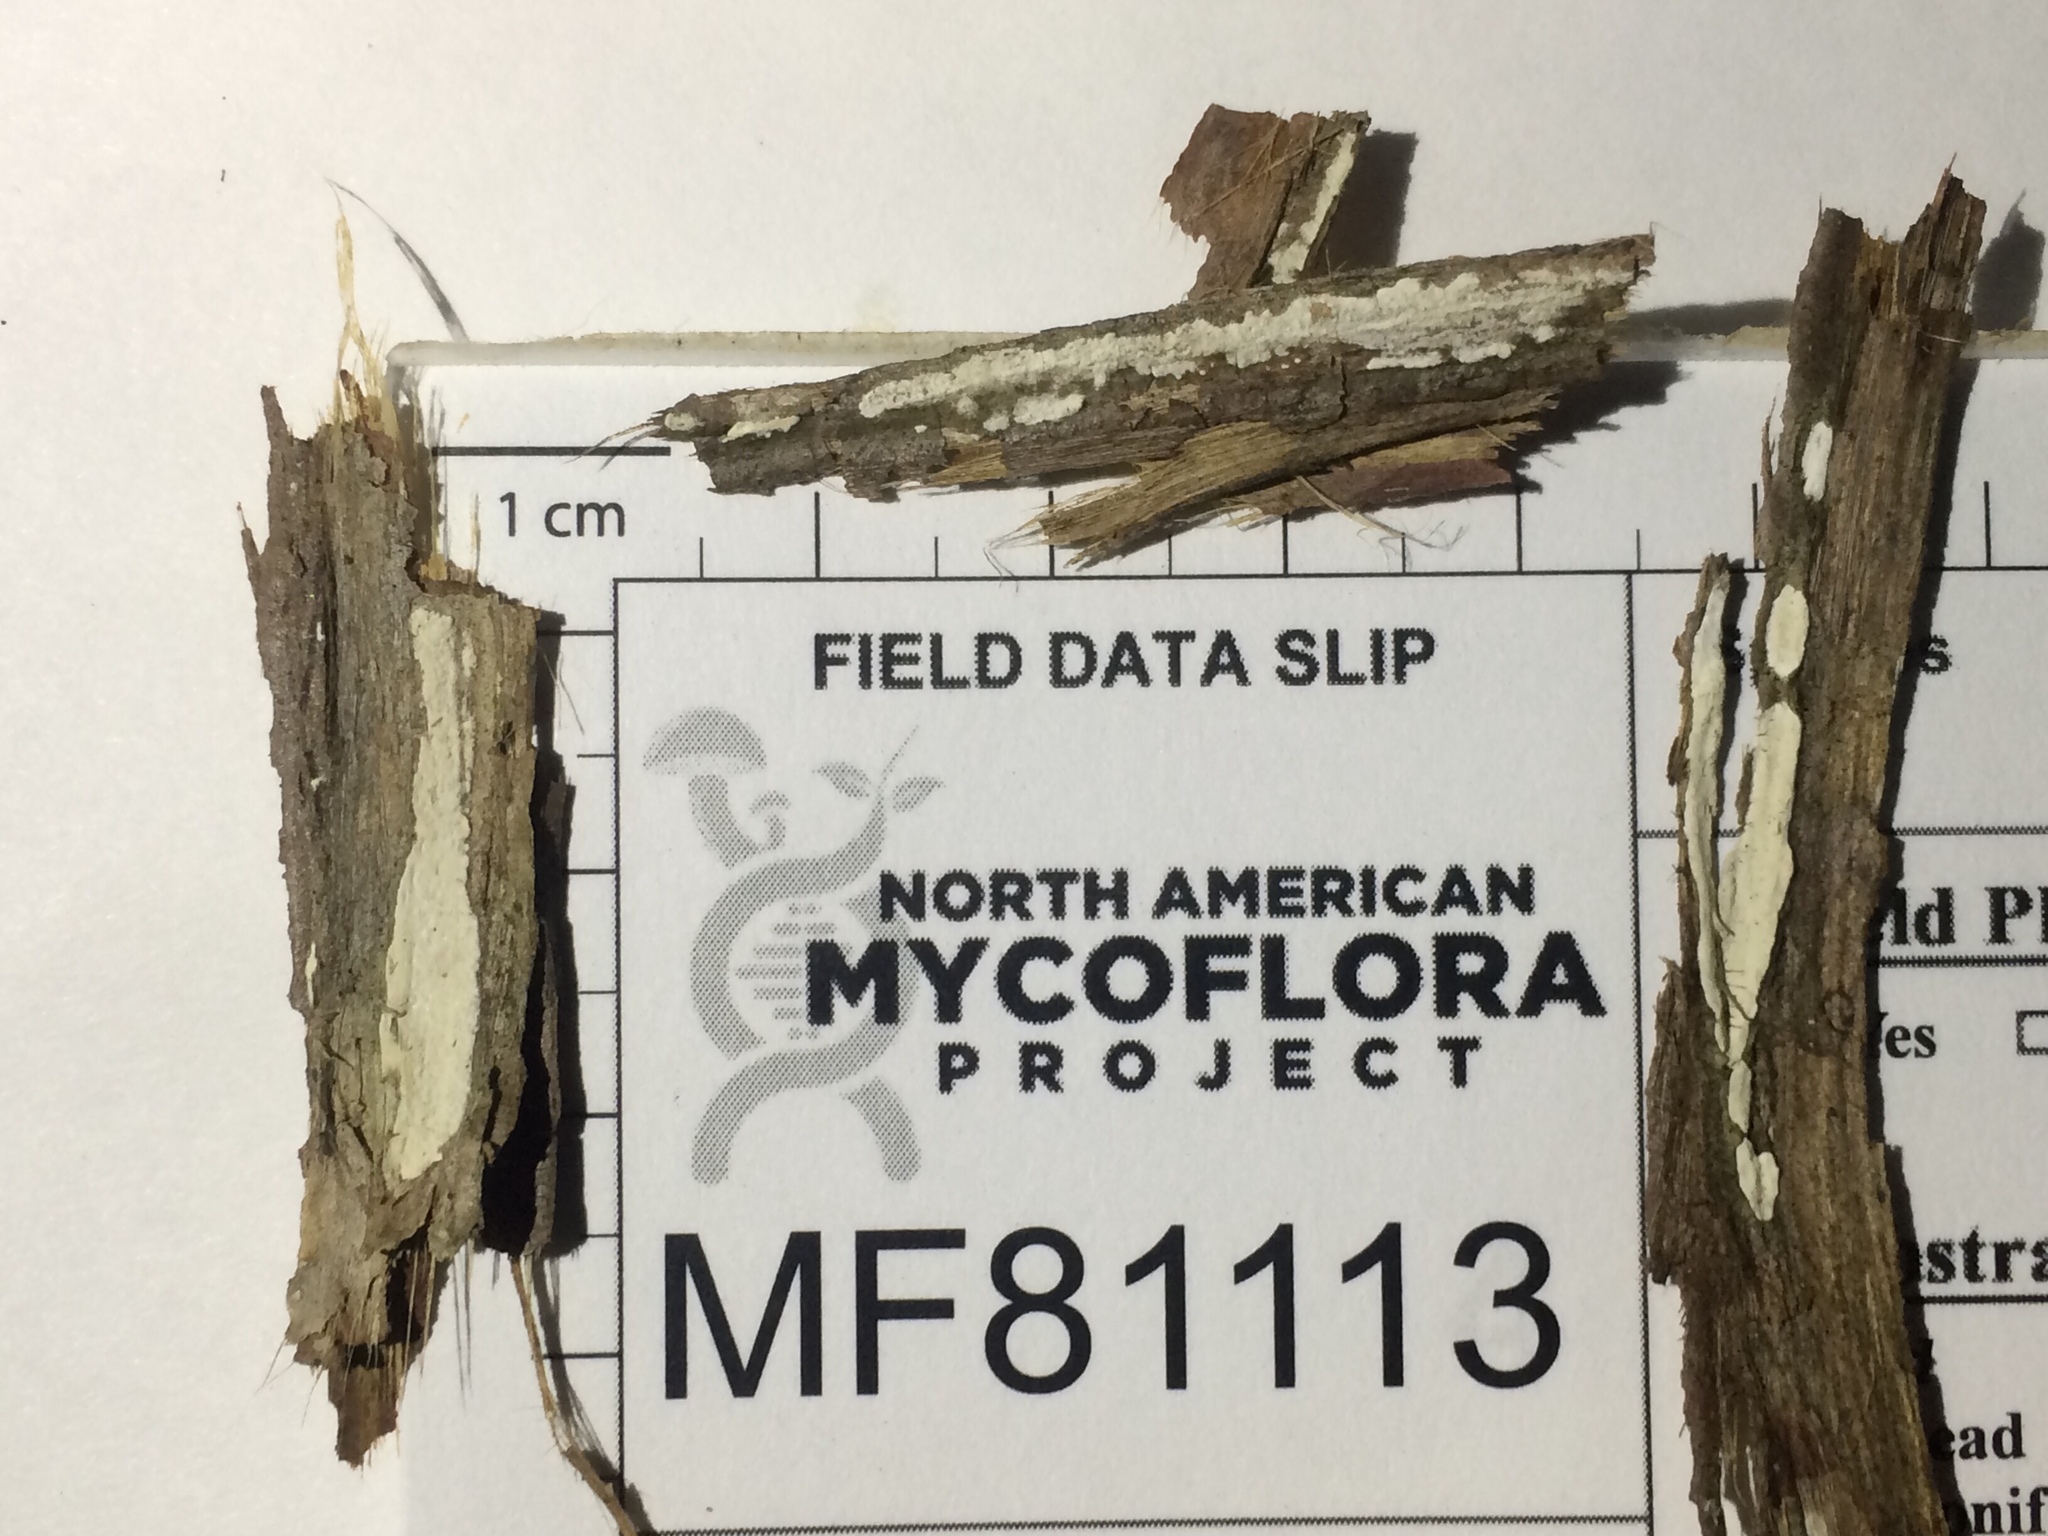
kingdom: Fungi
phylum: Basidiomycota
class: Agaricomycetes
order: Agaricales
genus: Dendrothele
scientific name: Dendrothele nivosa
